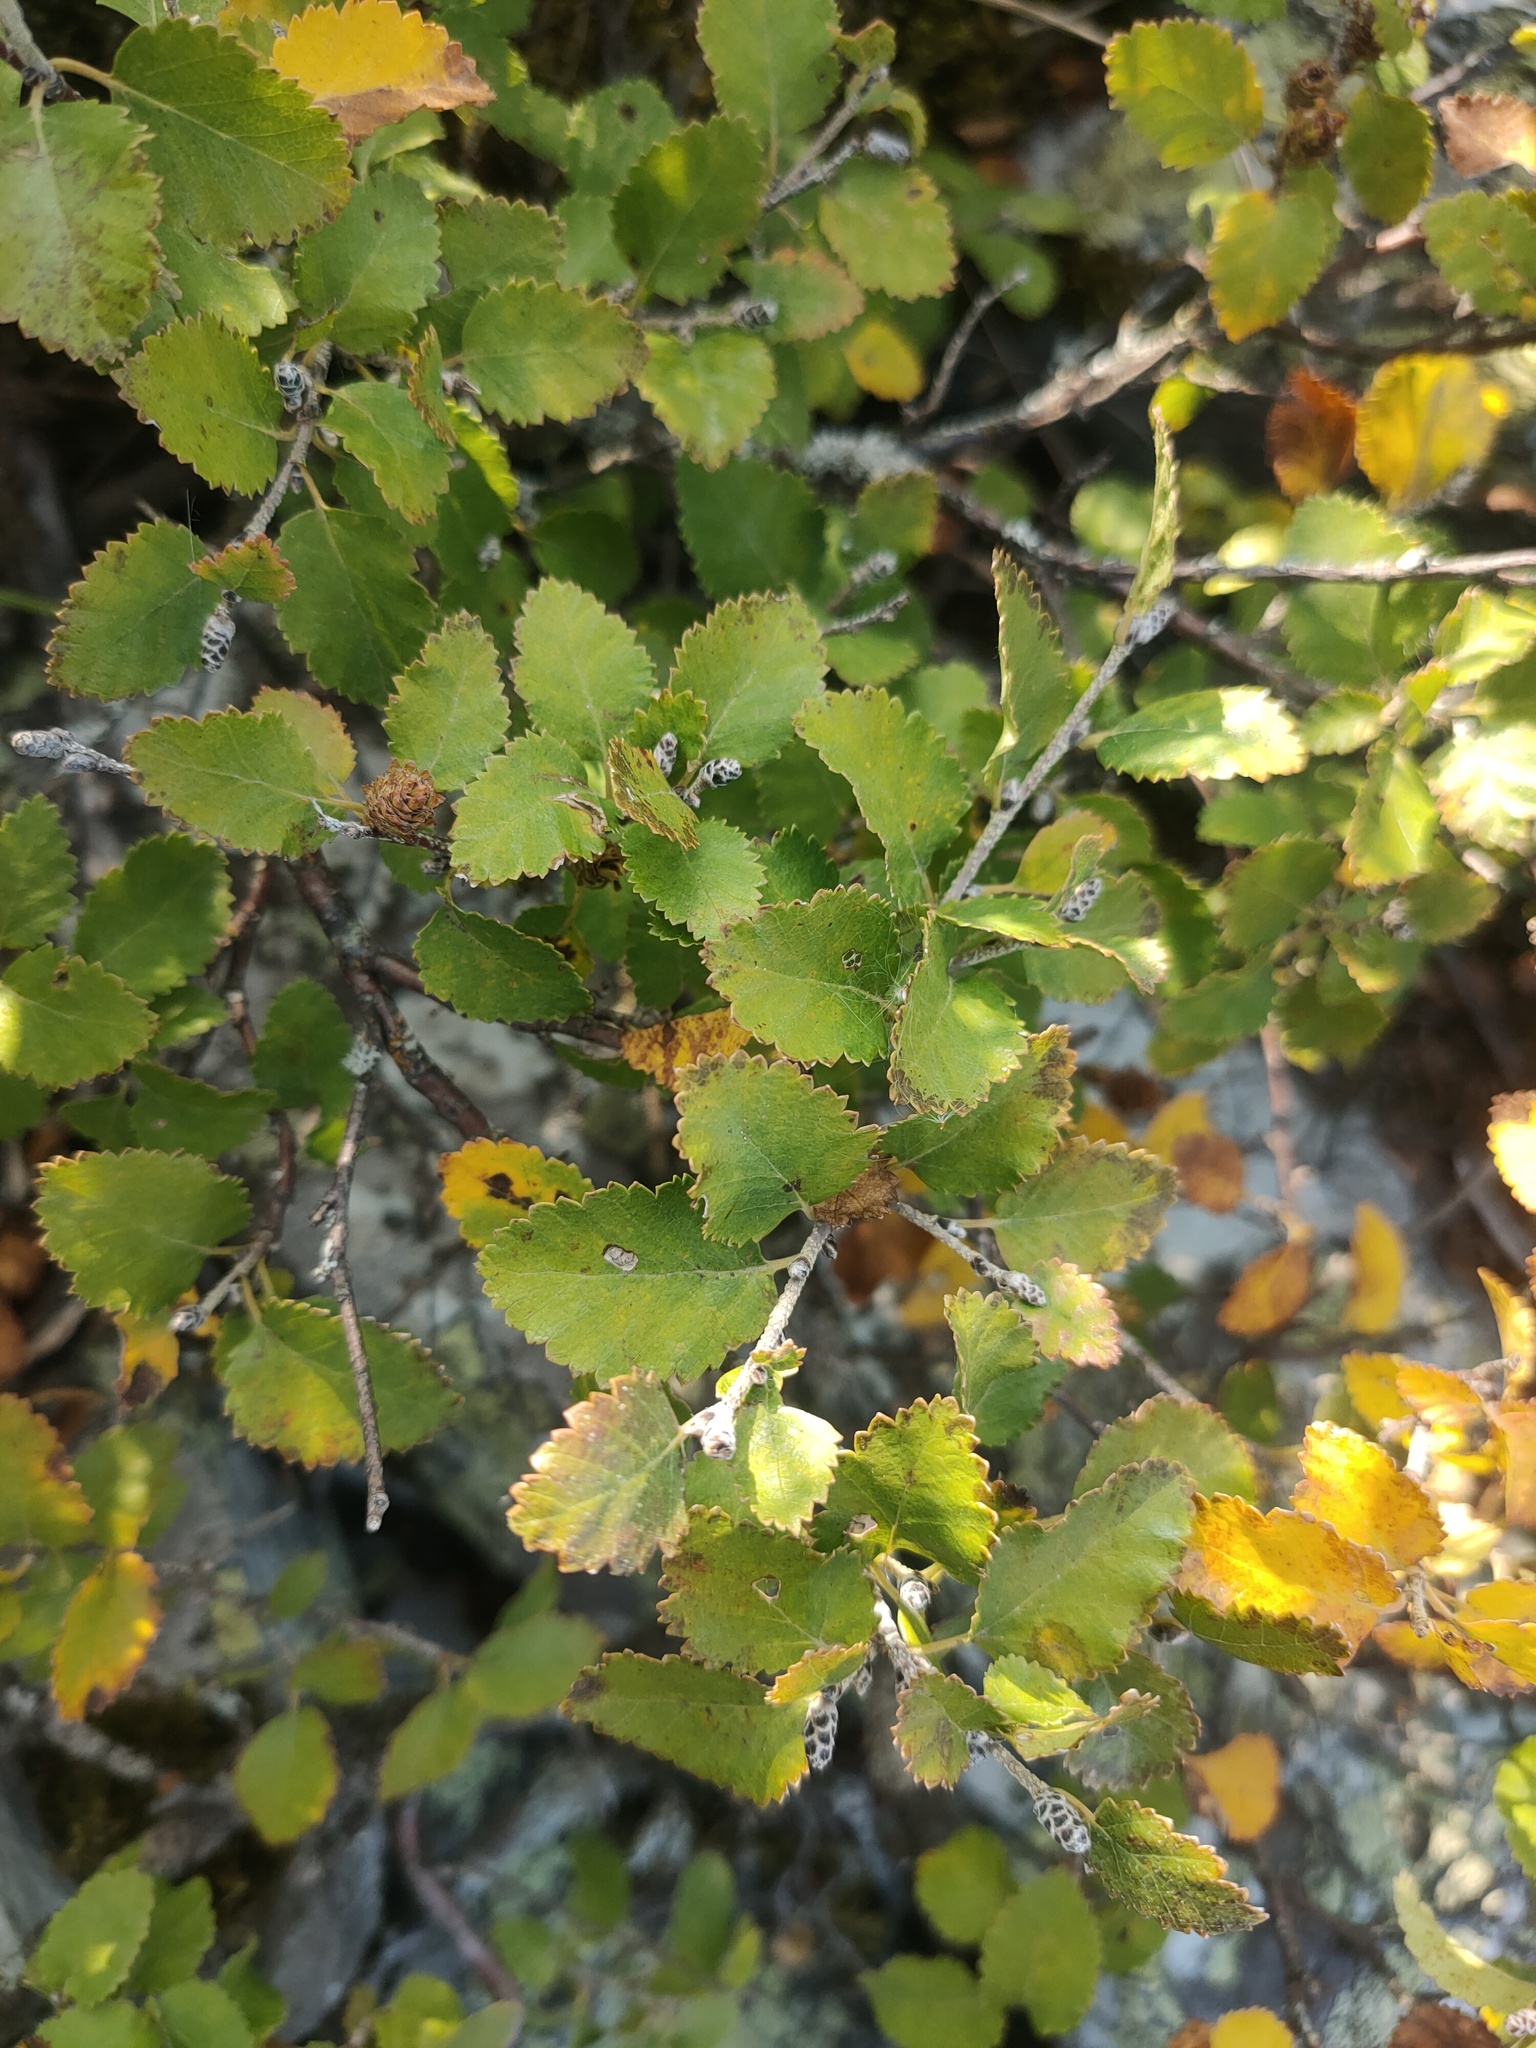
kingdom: Plantae
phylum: Tracheophyta
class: Magnoliopsida
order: Fagales
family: Betulaceae
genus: Betula
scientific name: Betula
